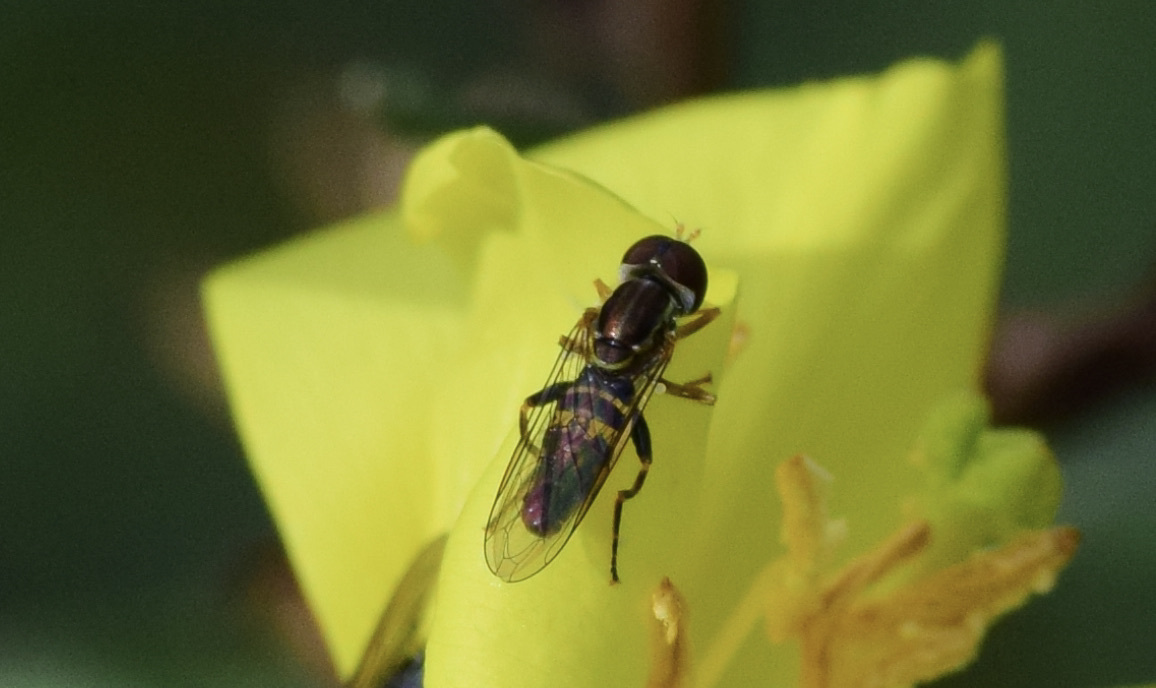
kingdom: Animalia
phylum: Arthropoda
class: Insecta
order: Diptera
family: Syrphidae
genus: Toxomerus
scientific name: Toxomerus geminatus
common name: Eastern calligrapher
